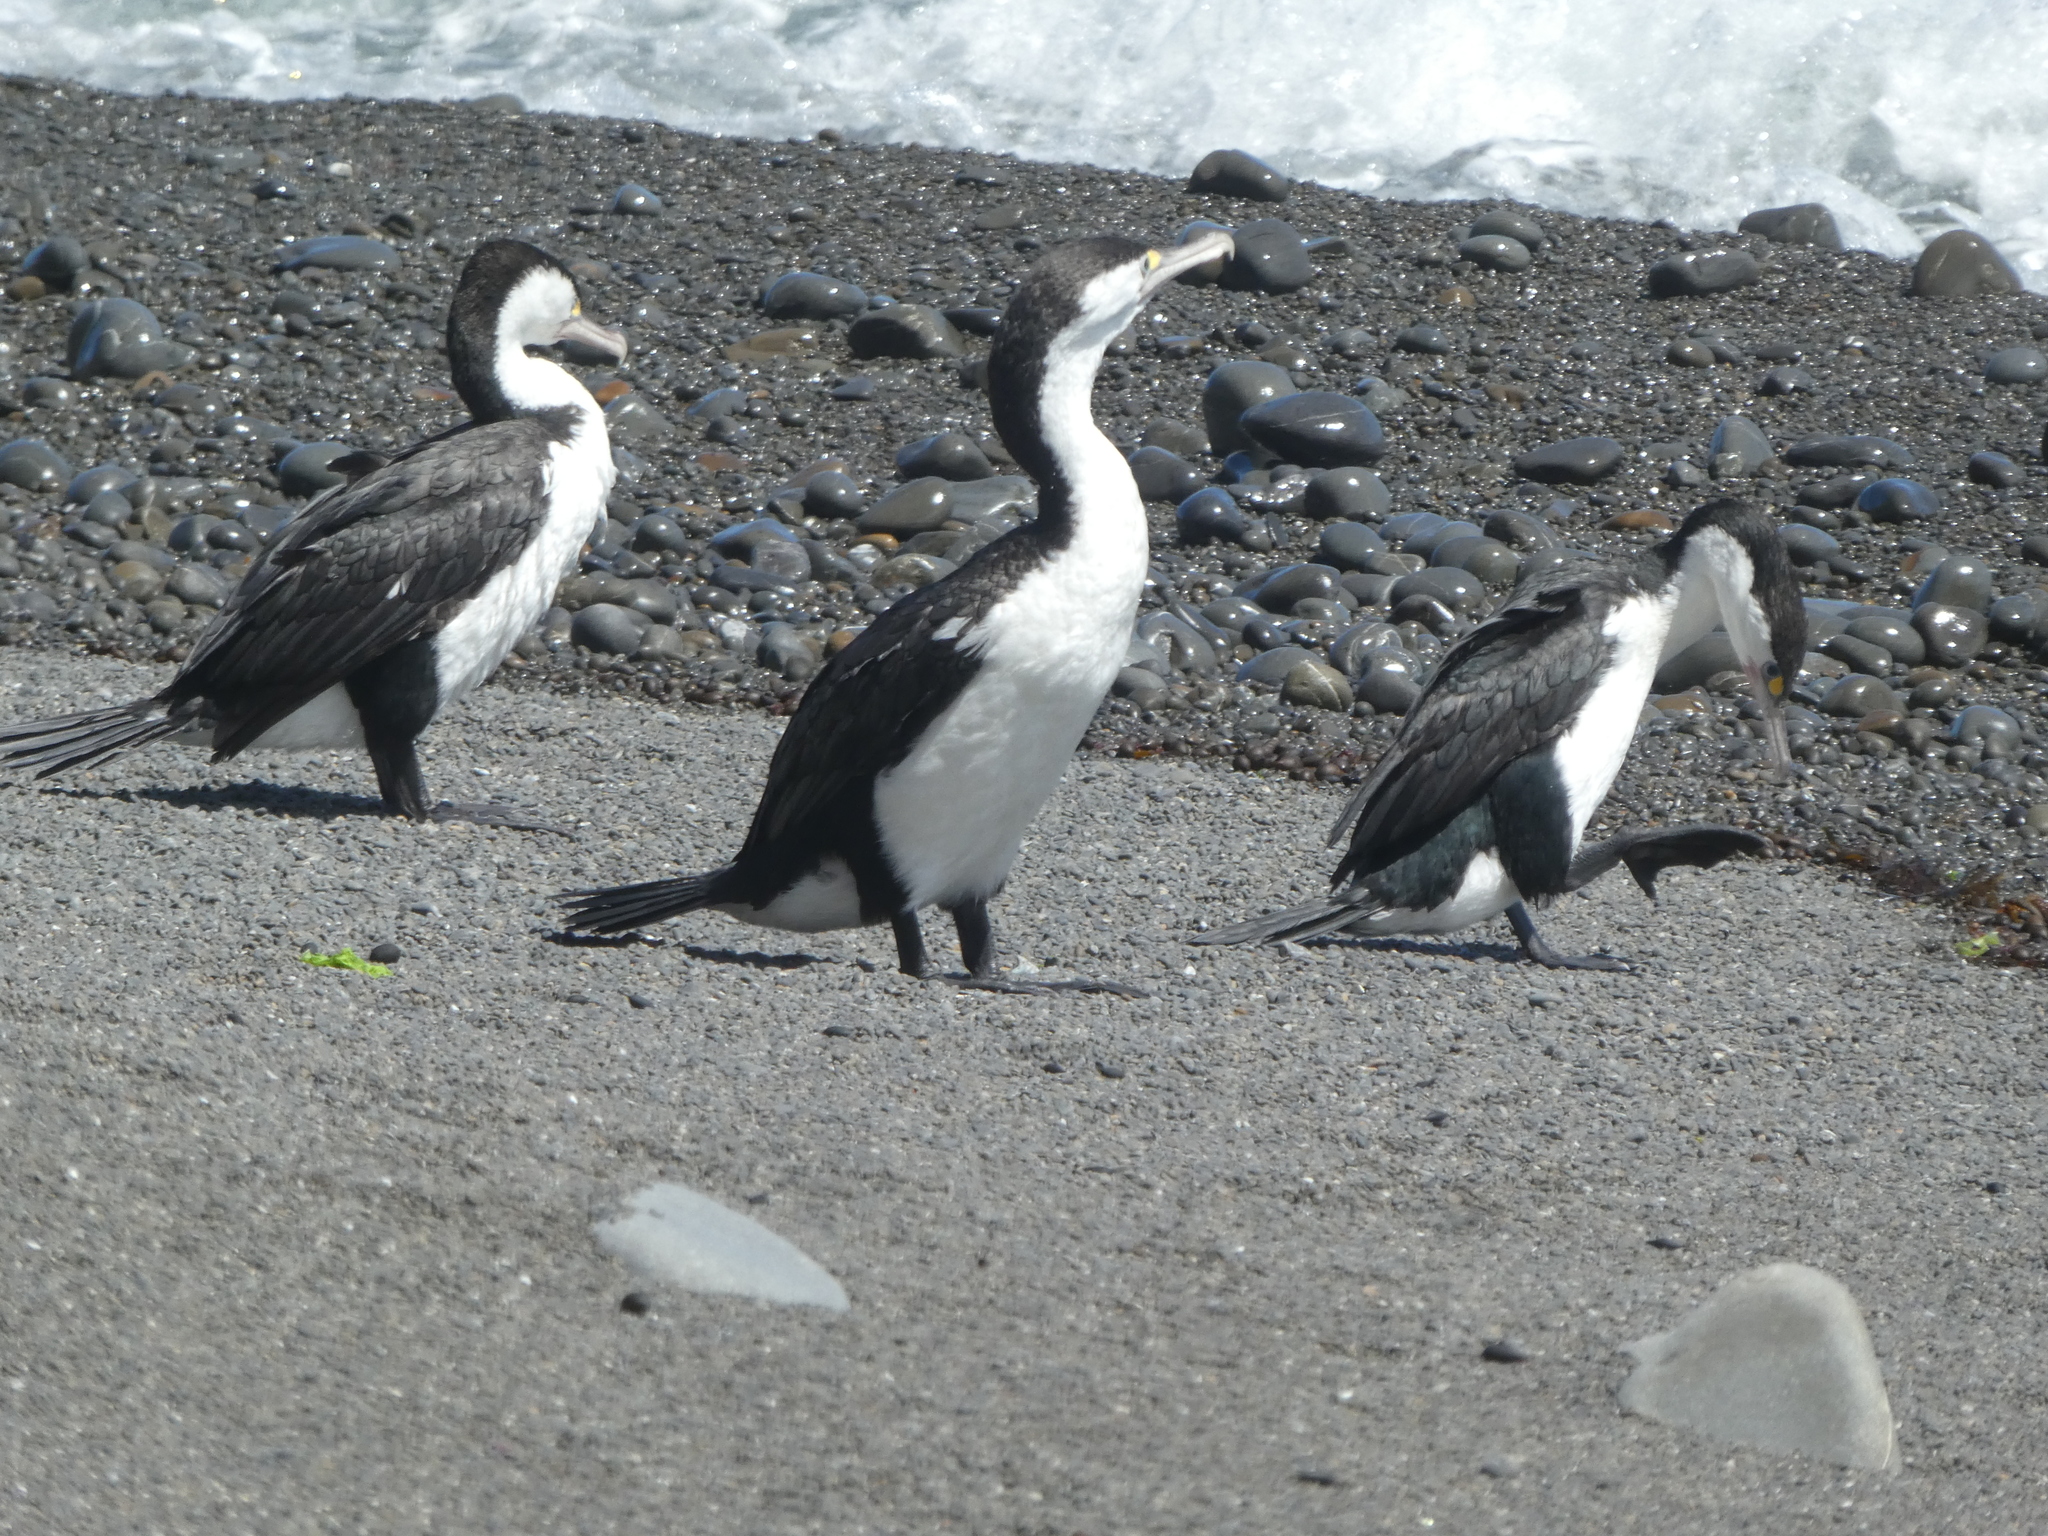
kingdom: Animalia
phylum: Chordata
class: Aves
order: Suliformes
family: Phalacrocoracidae
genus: Phalacrocorax
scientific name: Phalacrocorax varius
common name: Pied cormorant
